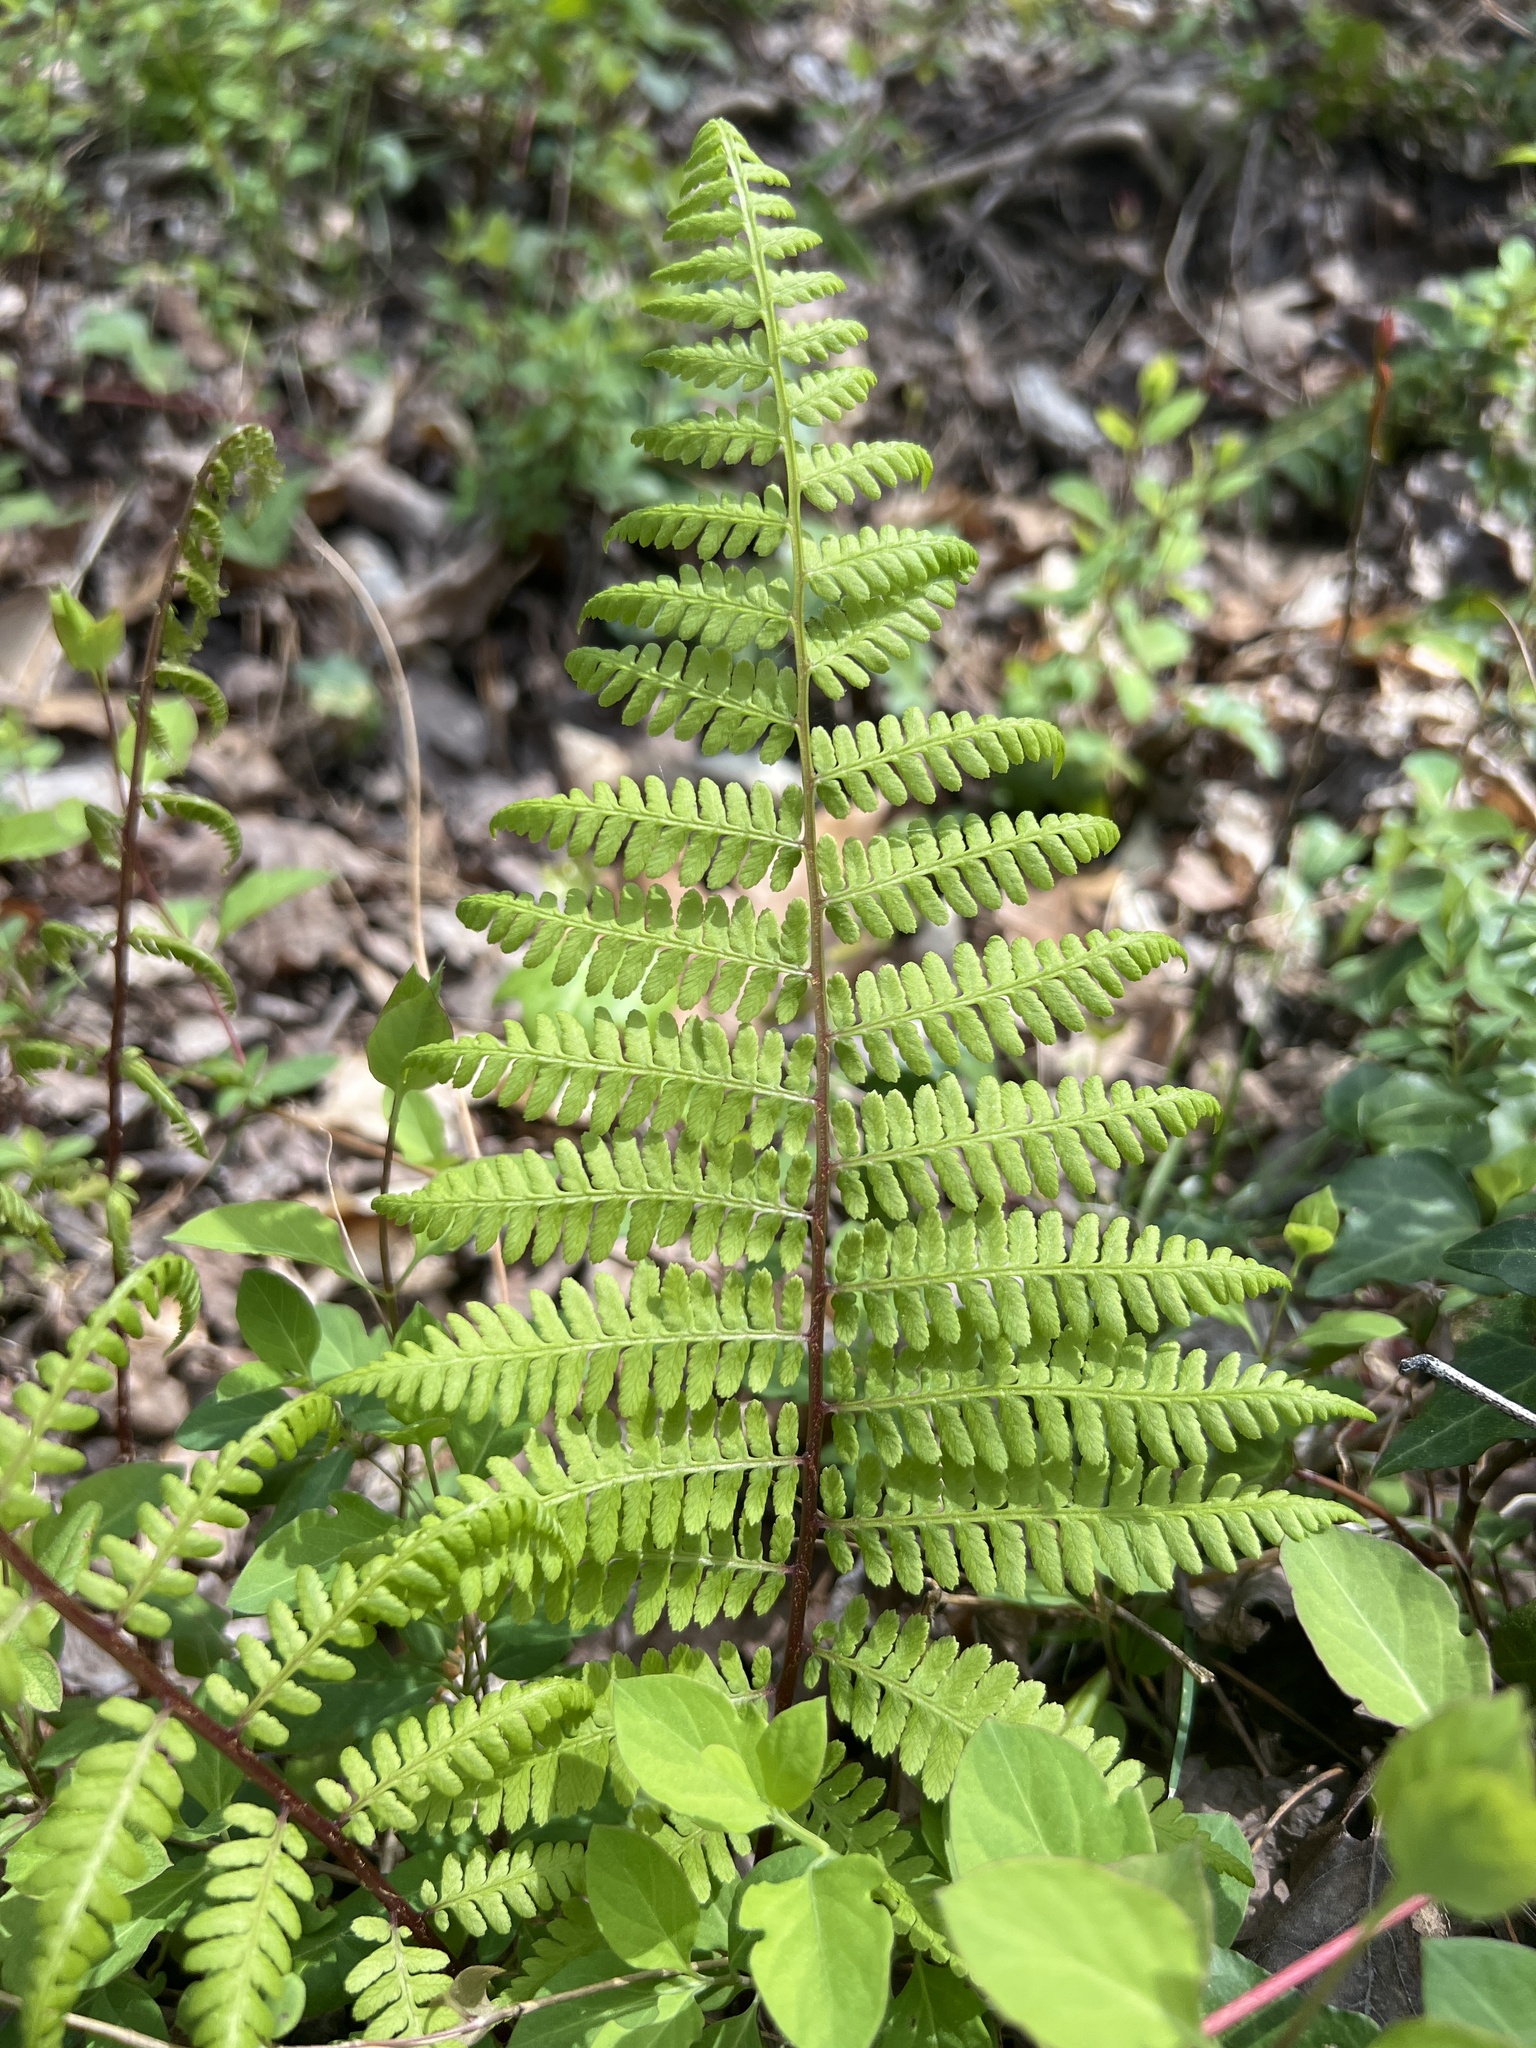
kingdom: Plantae
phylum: Tracheophyta
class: Polypodiopsida
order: Polypodiales
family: Athyriaceae
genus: Athyrium
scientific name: Athyrium asplenioides
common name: Southern lady fern
